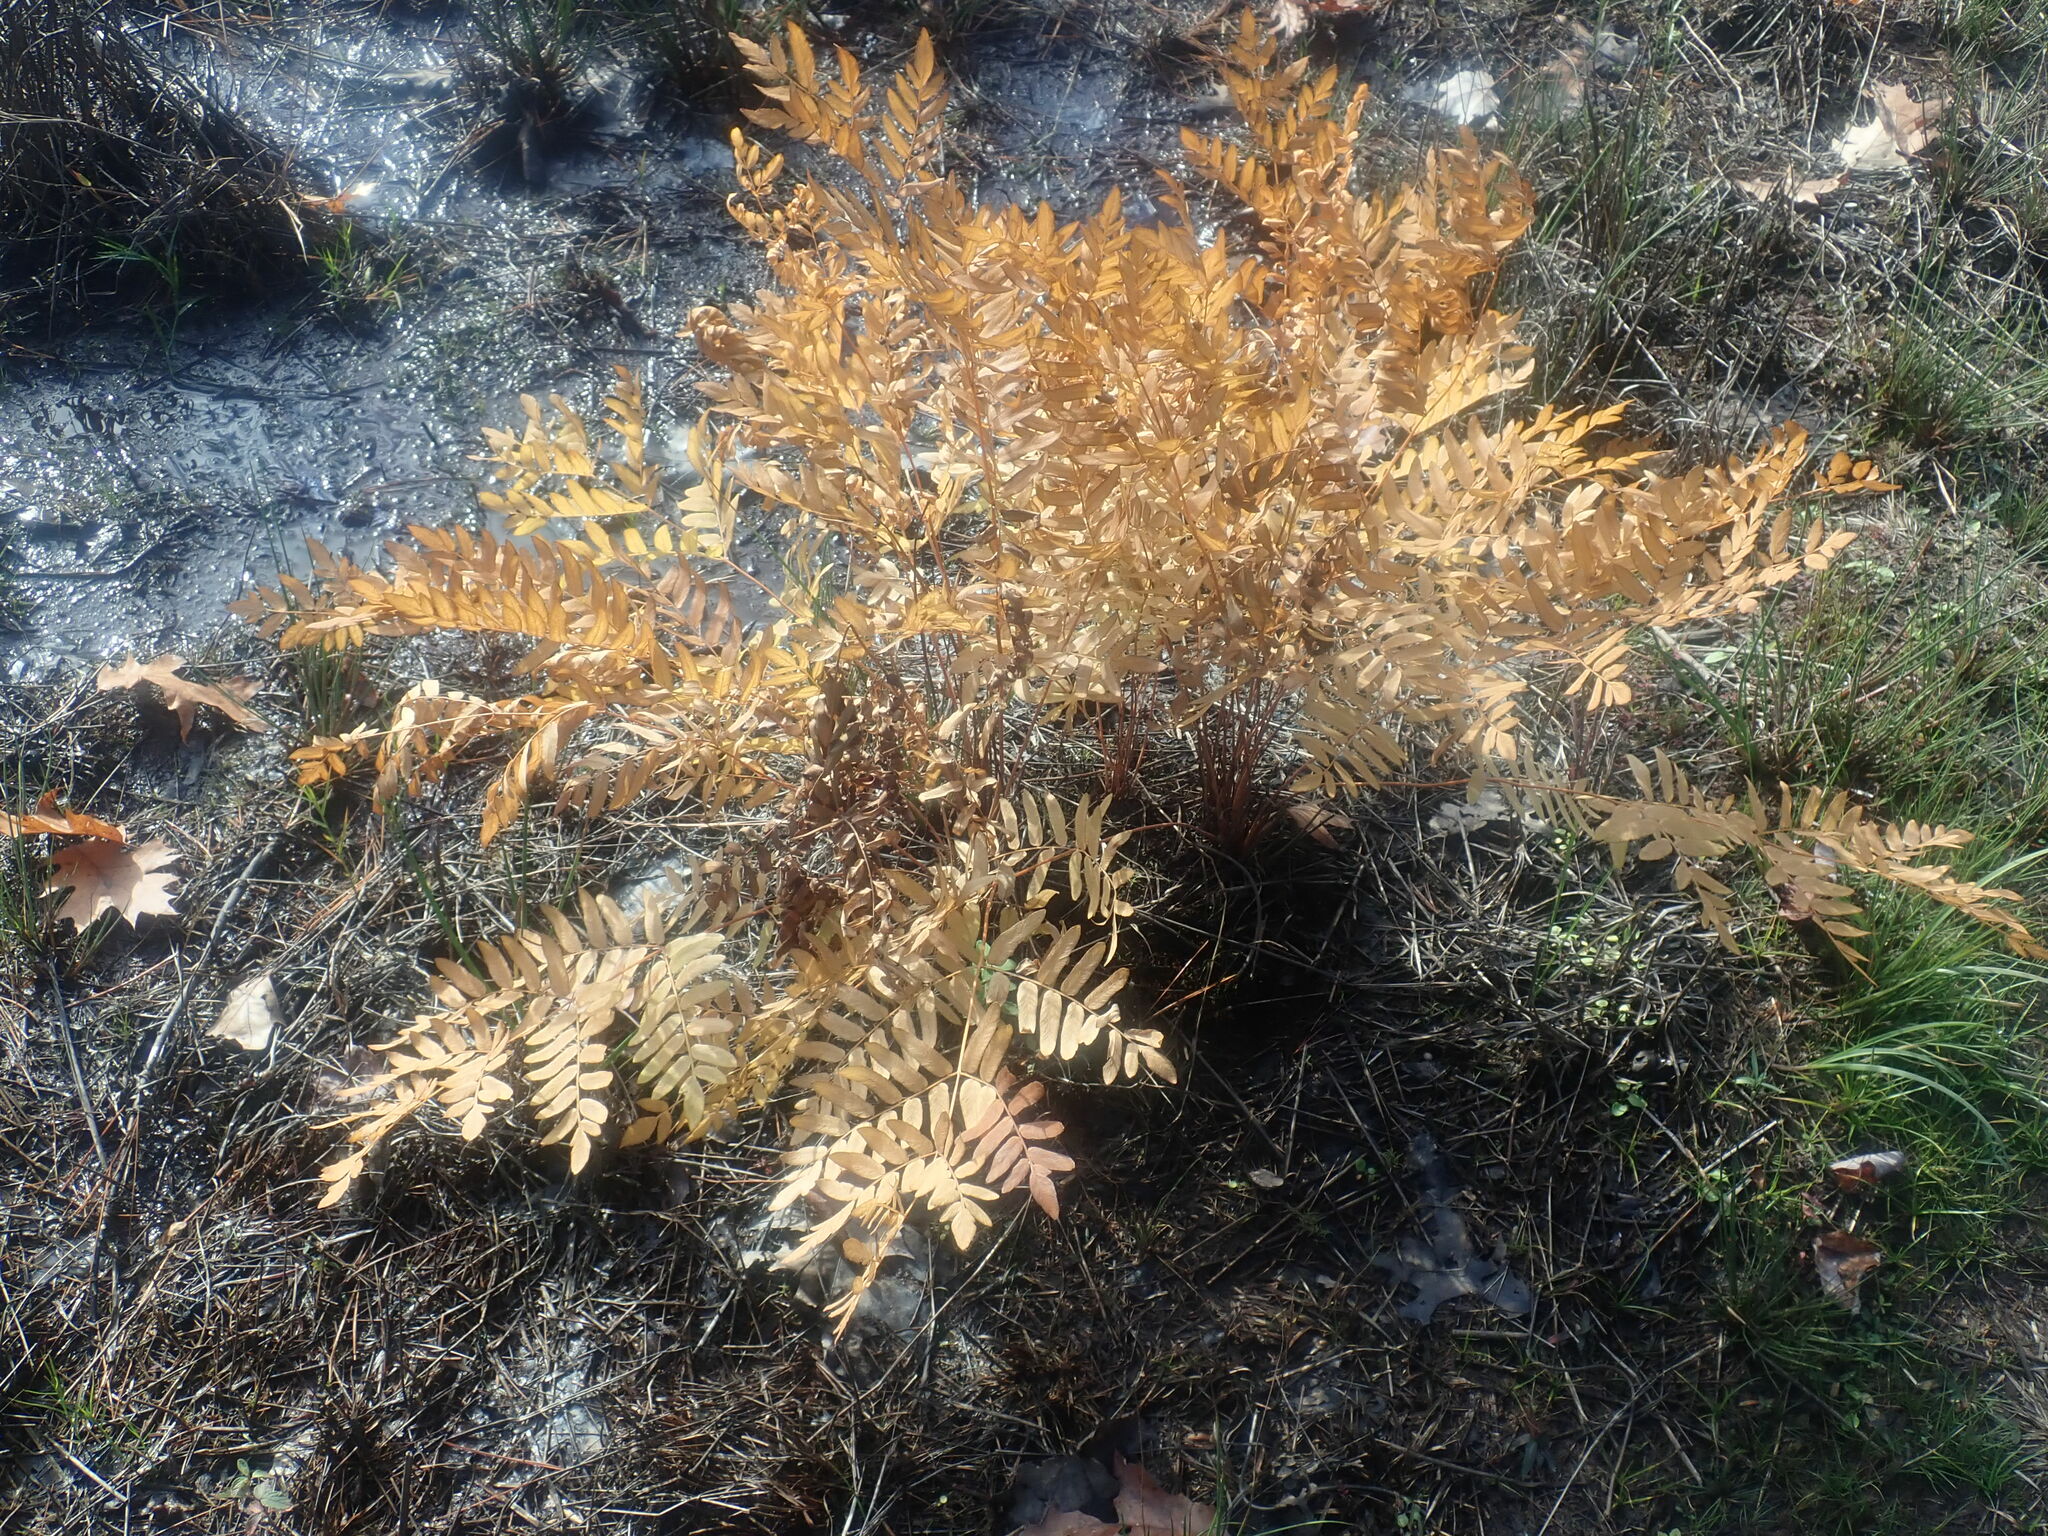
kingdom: Plantae
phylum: Tracheophyta
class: Polypodiopsida
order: Osmundales
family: Osmundaceae
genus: Osmunda
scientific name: Osmunda spectabilis
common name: American royal fern
